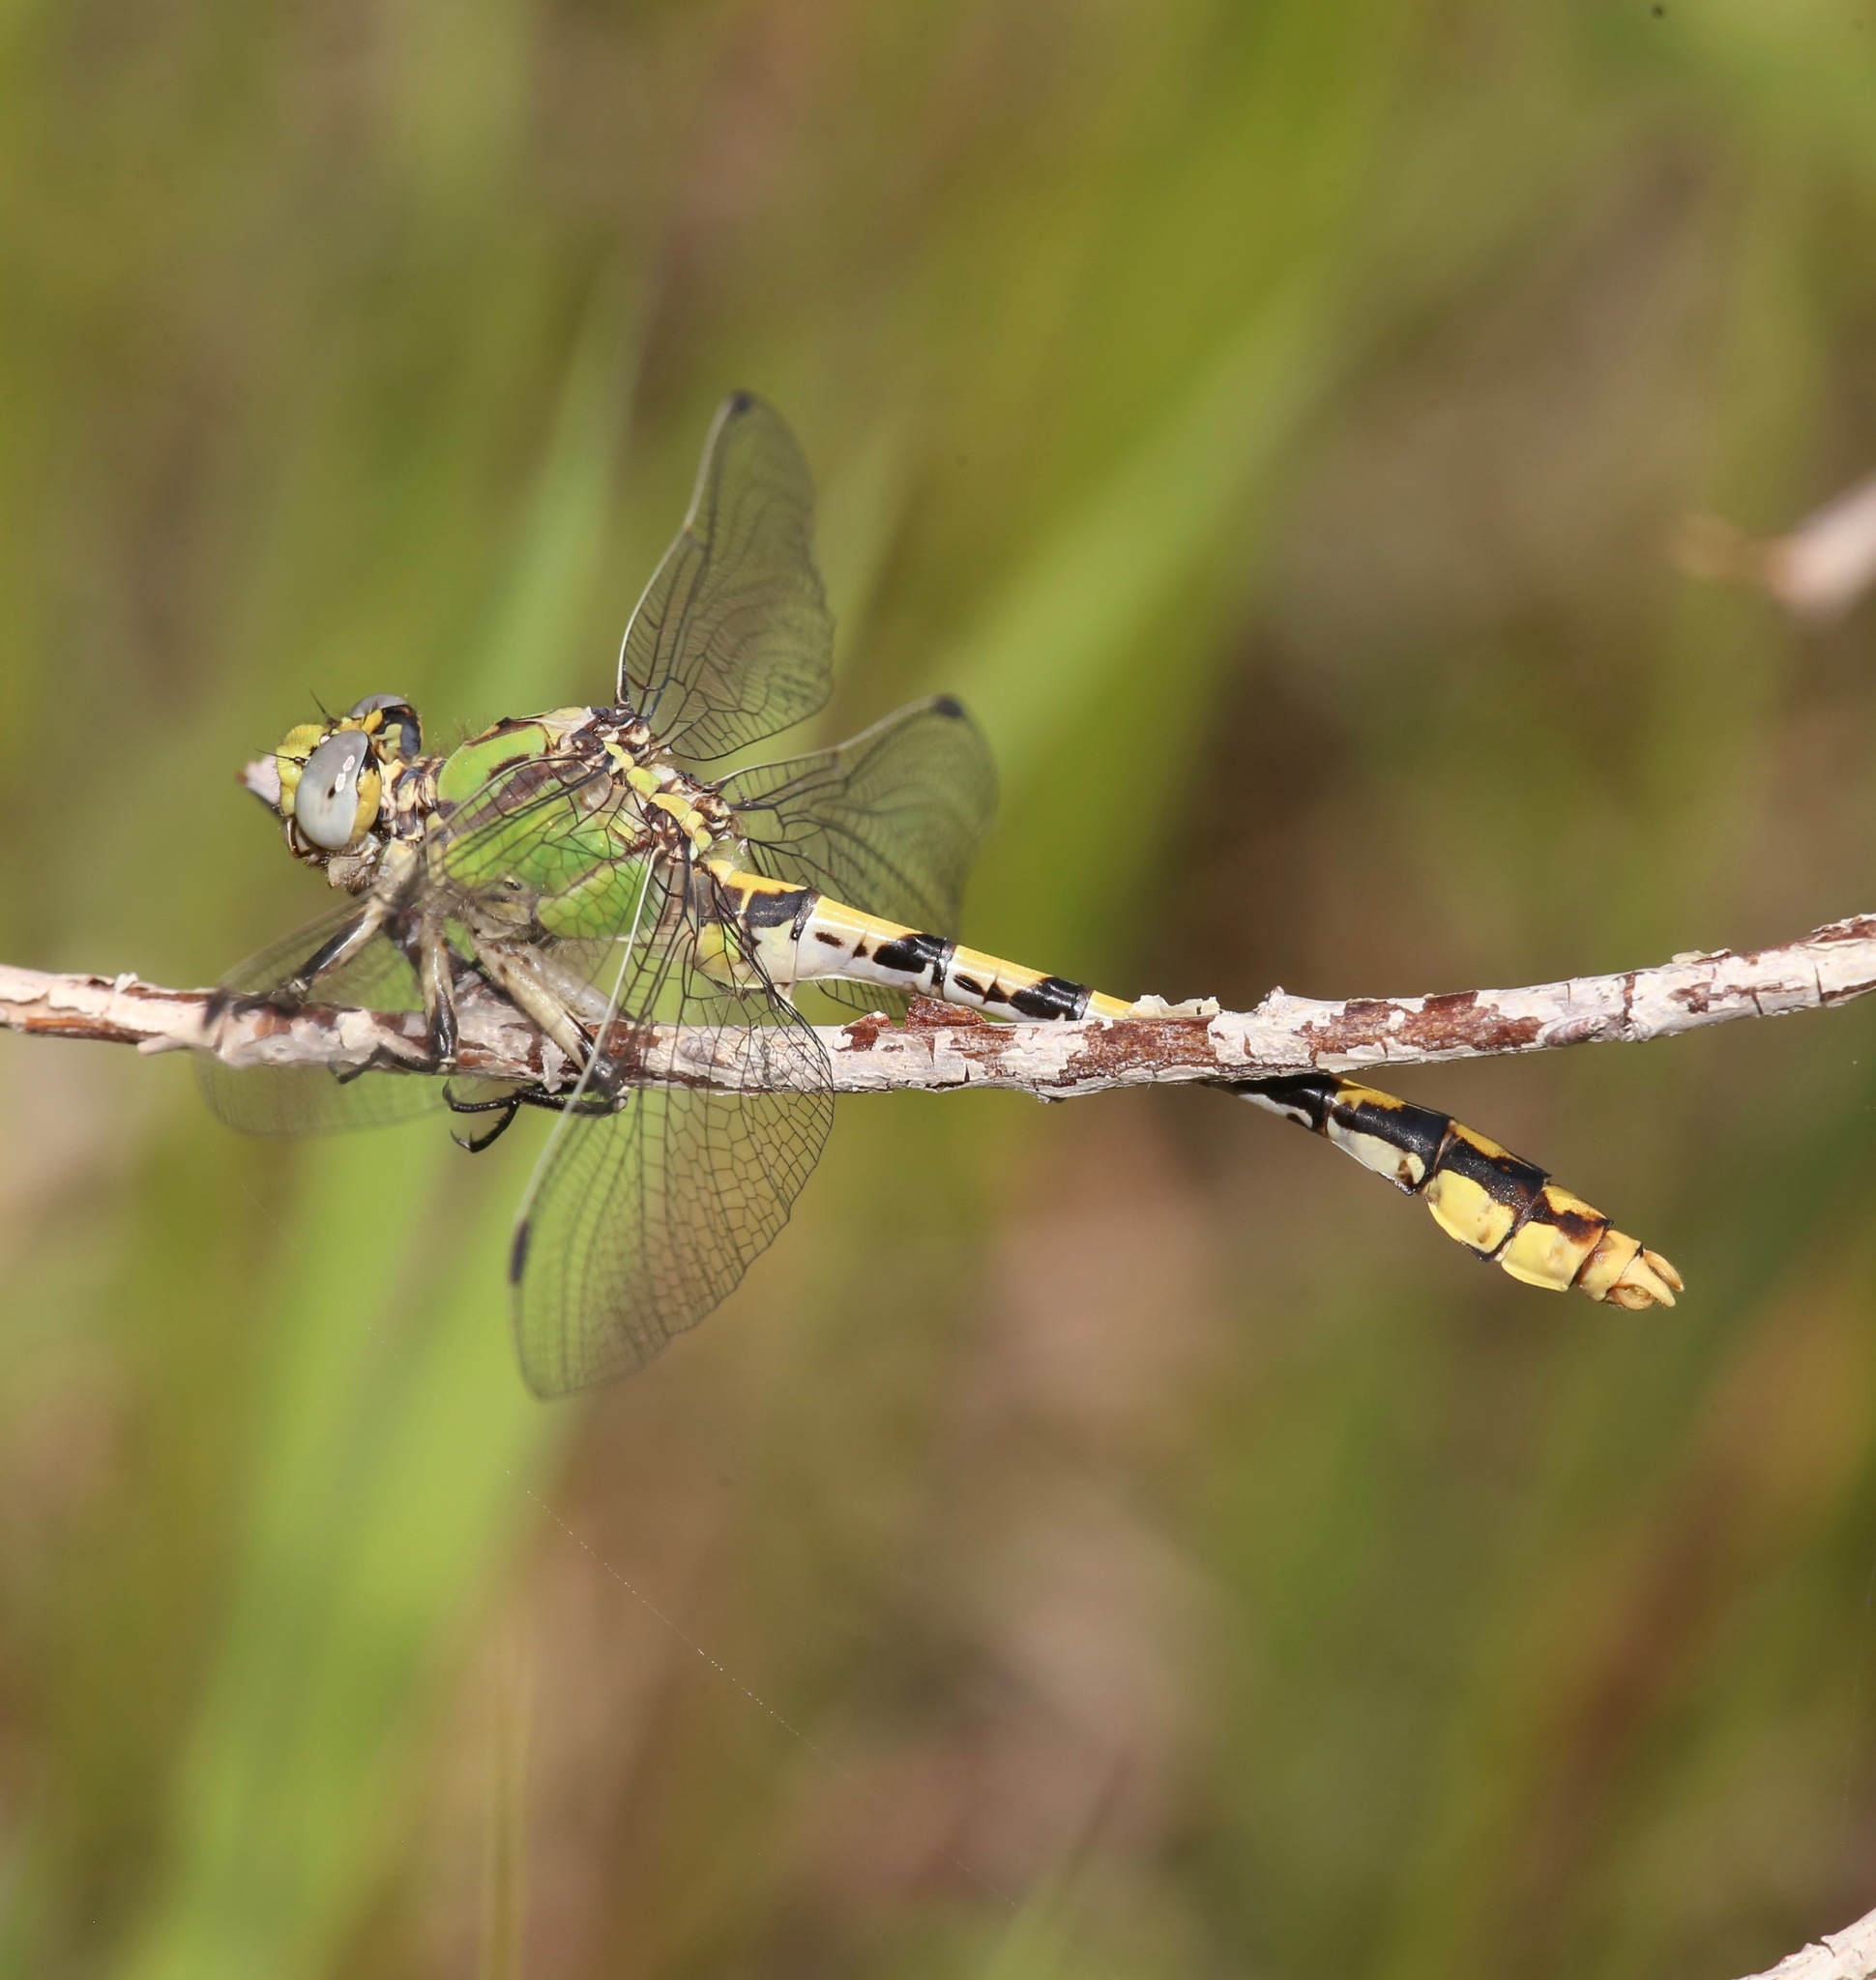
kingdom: Animalia
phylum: Arthropoda
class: Insecta
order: Odonata
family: Gomphidae
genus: Ophiogomphus
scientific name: Ophiogomphus occidentis
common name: Sinuous snaketail
